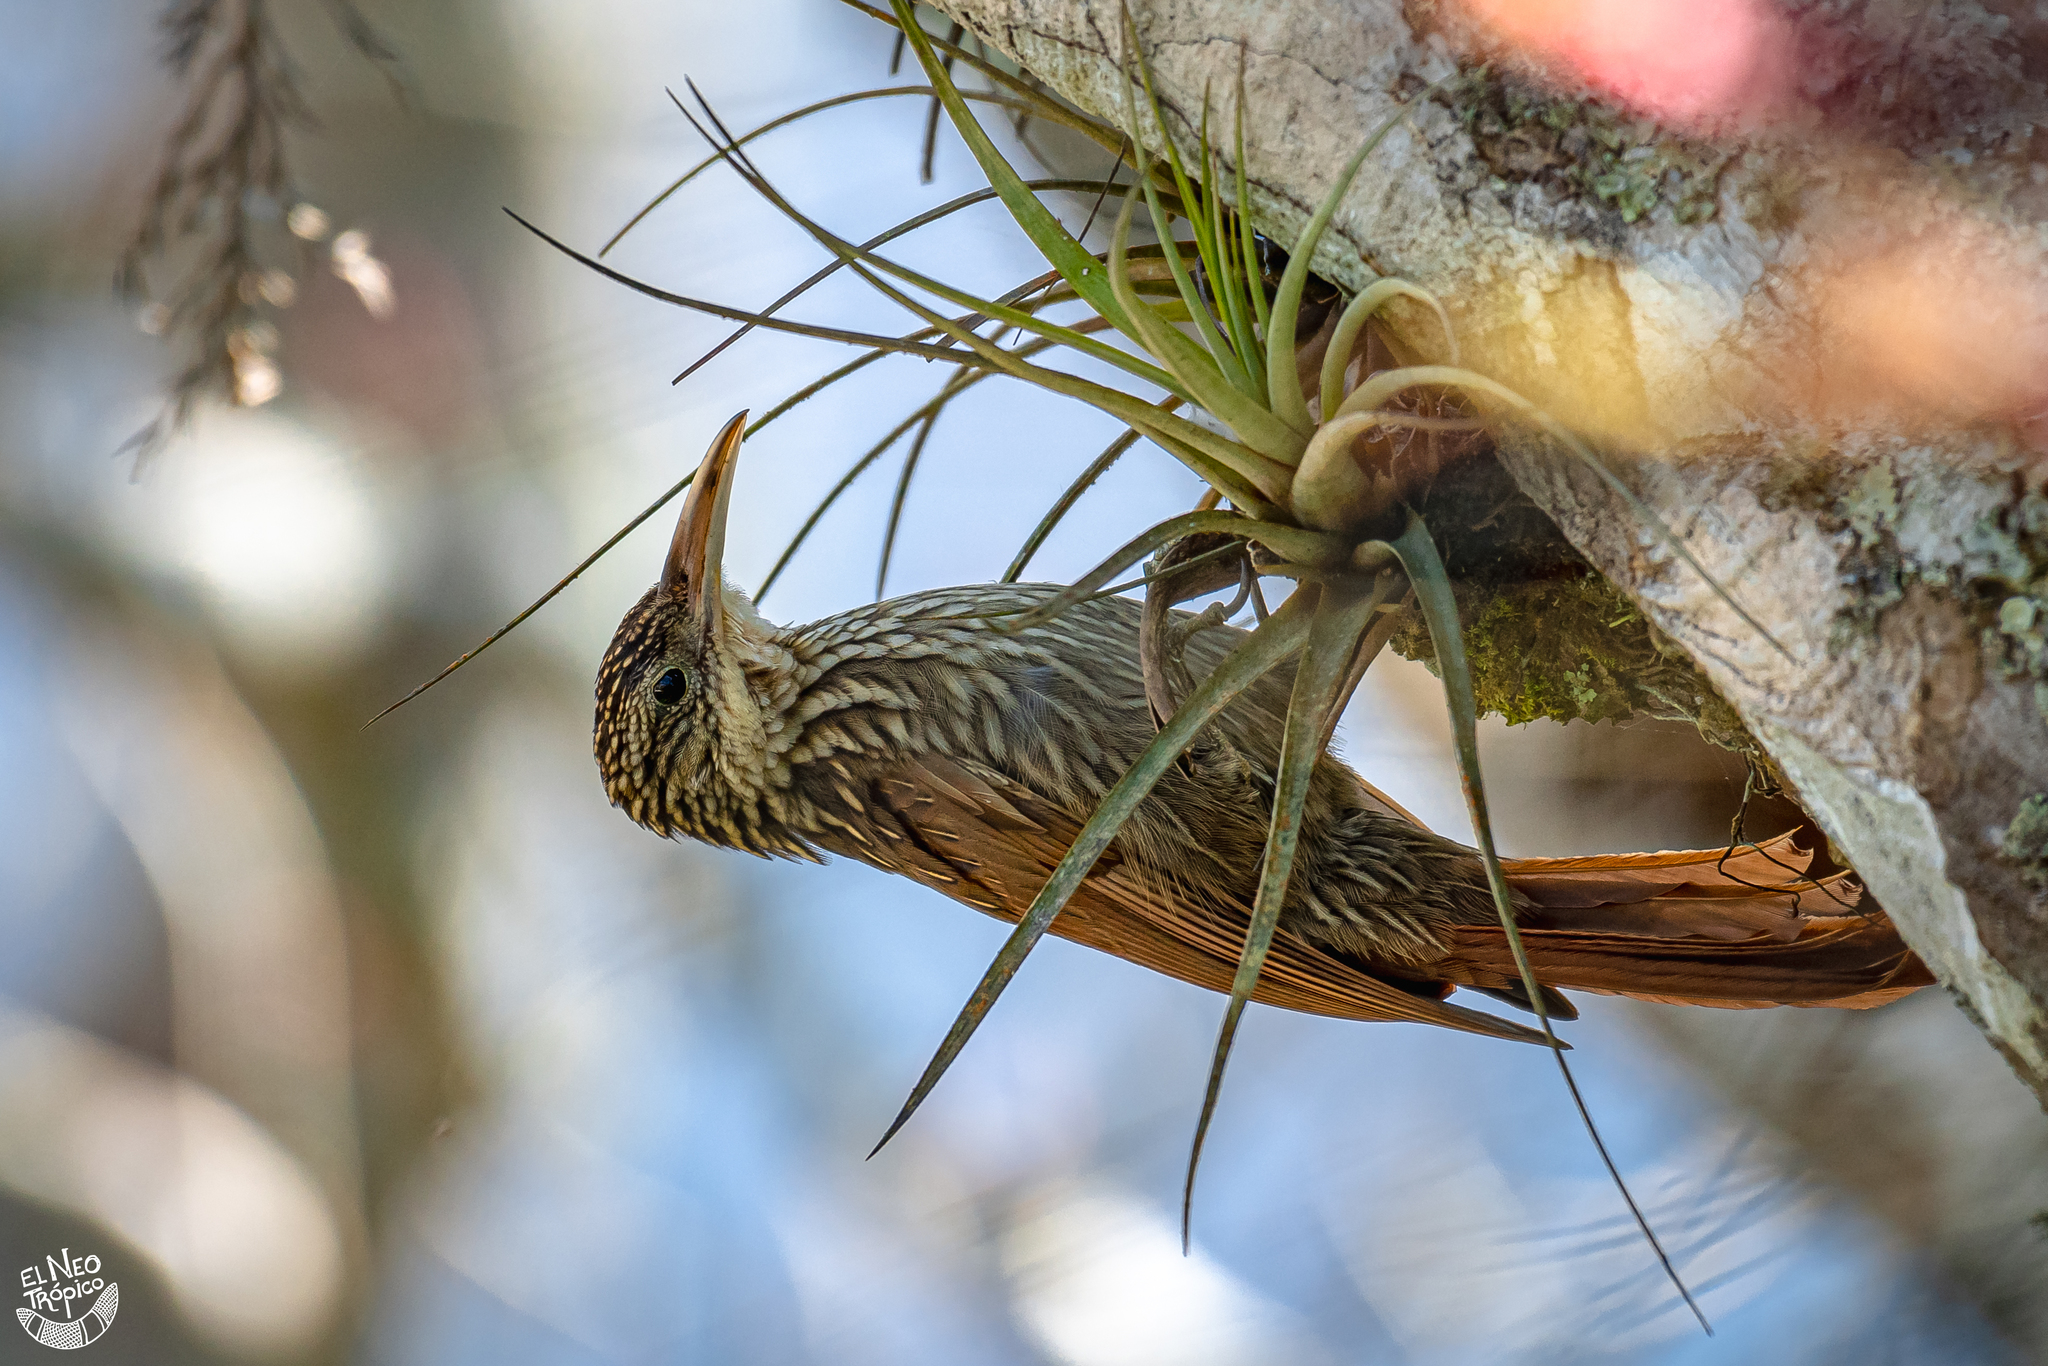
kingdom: Animalia
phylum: Chordata
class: Aves
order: Passeriformes
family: Furnariidae
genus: Xiphorhynchus
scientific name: Xiphorhynchus flavigaster
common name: Ivory-billed woodcreeper
